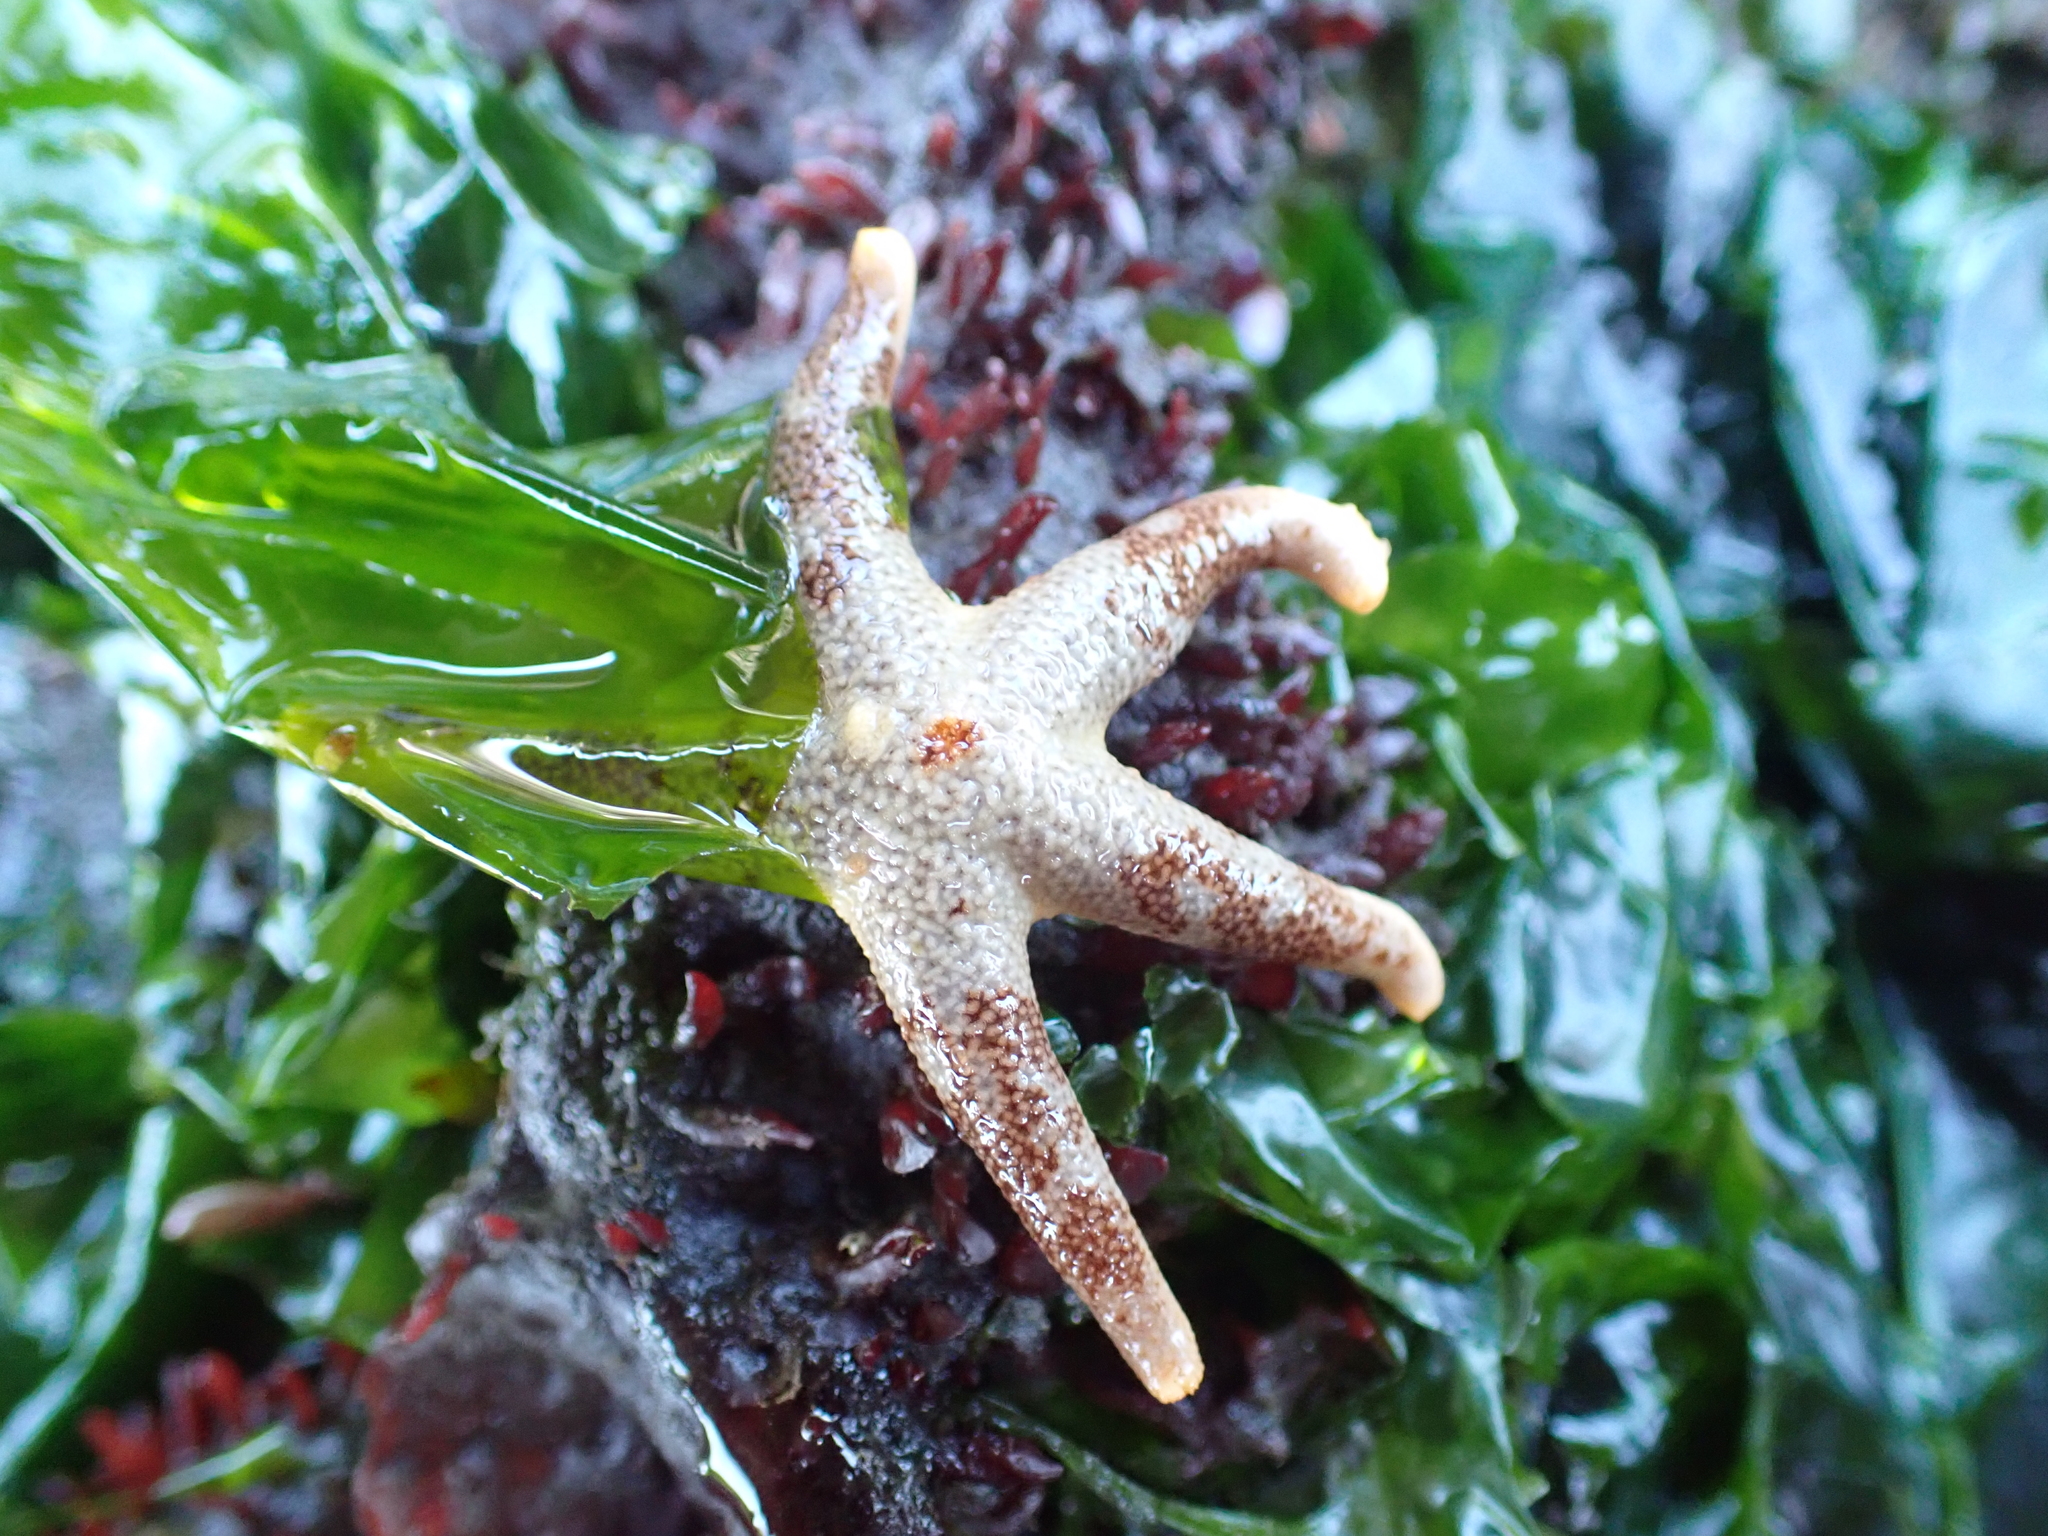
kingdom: Animalia
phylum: Echinodermata
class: Asteroidea
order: Spinulosida
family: Echinasteridae
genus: Henricia
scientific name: Henricia pumila
